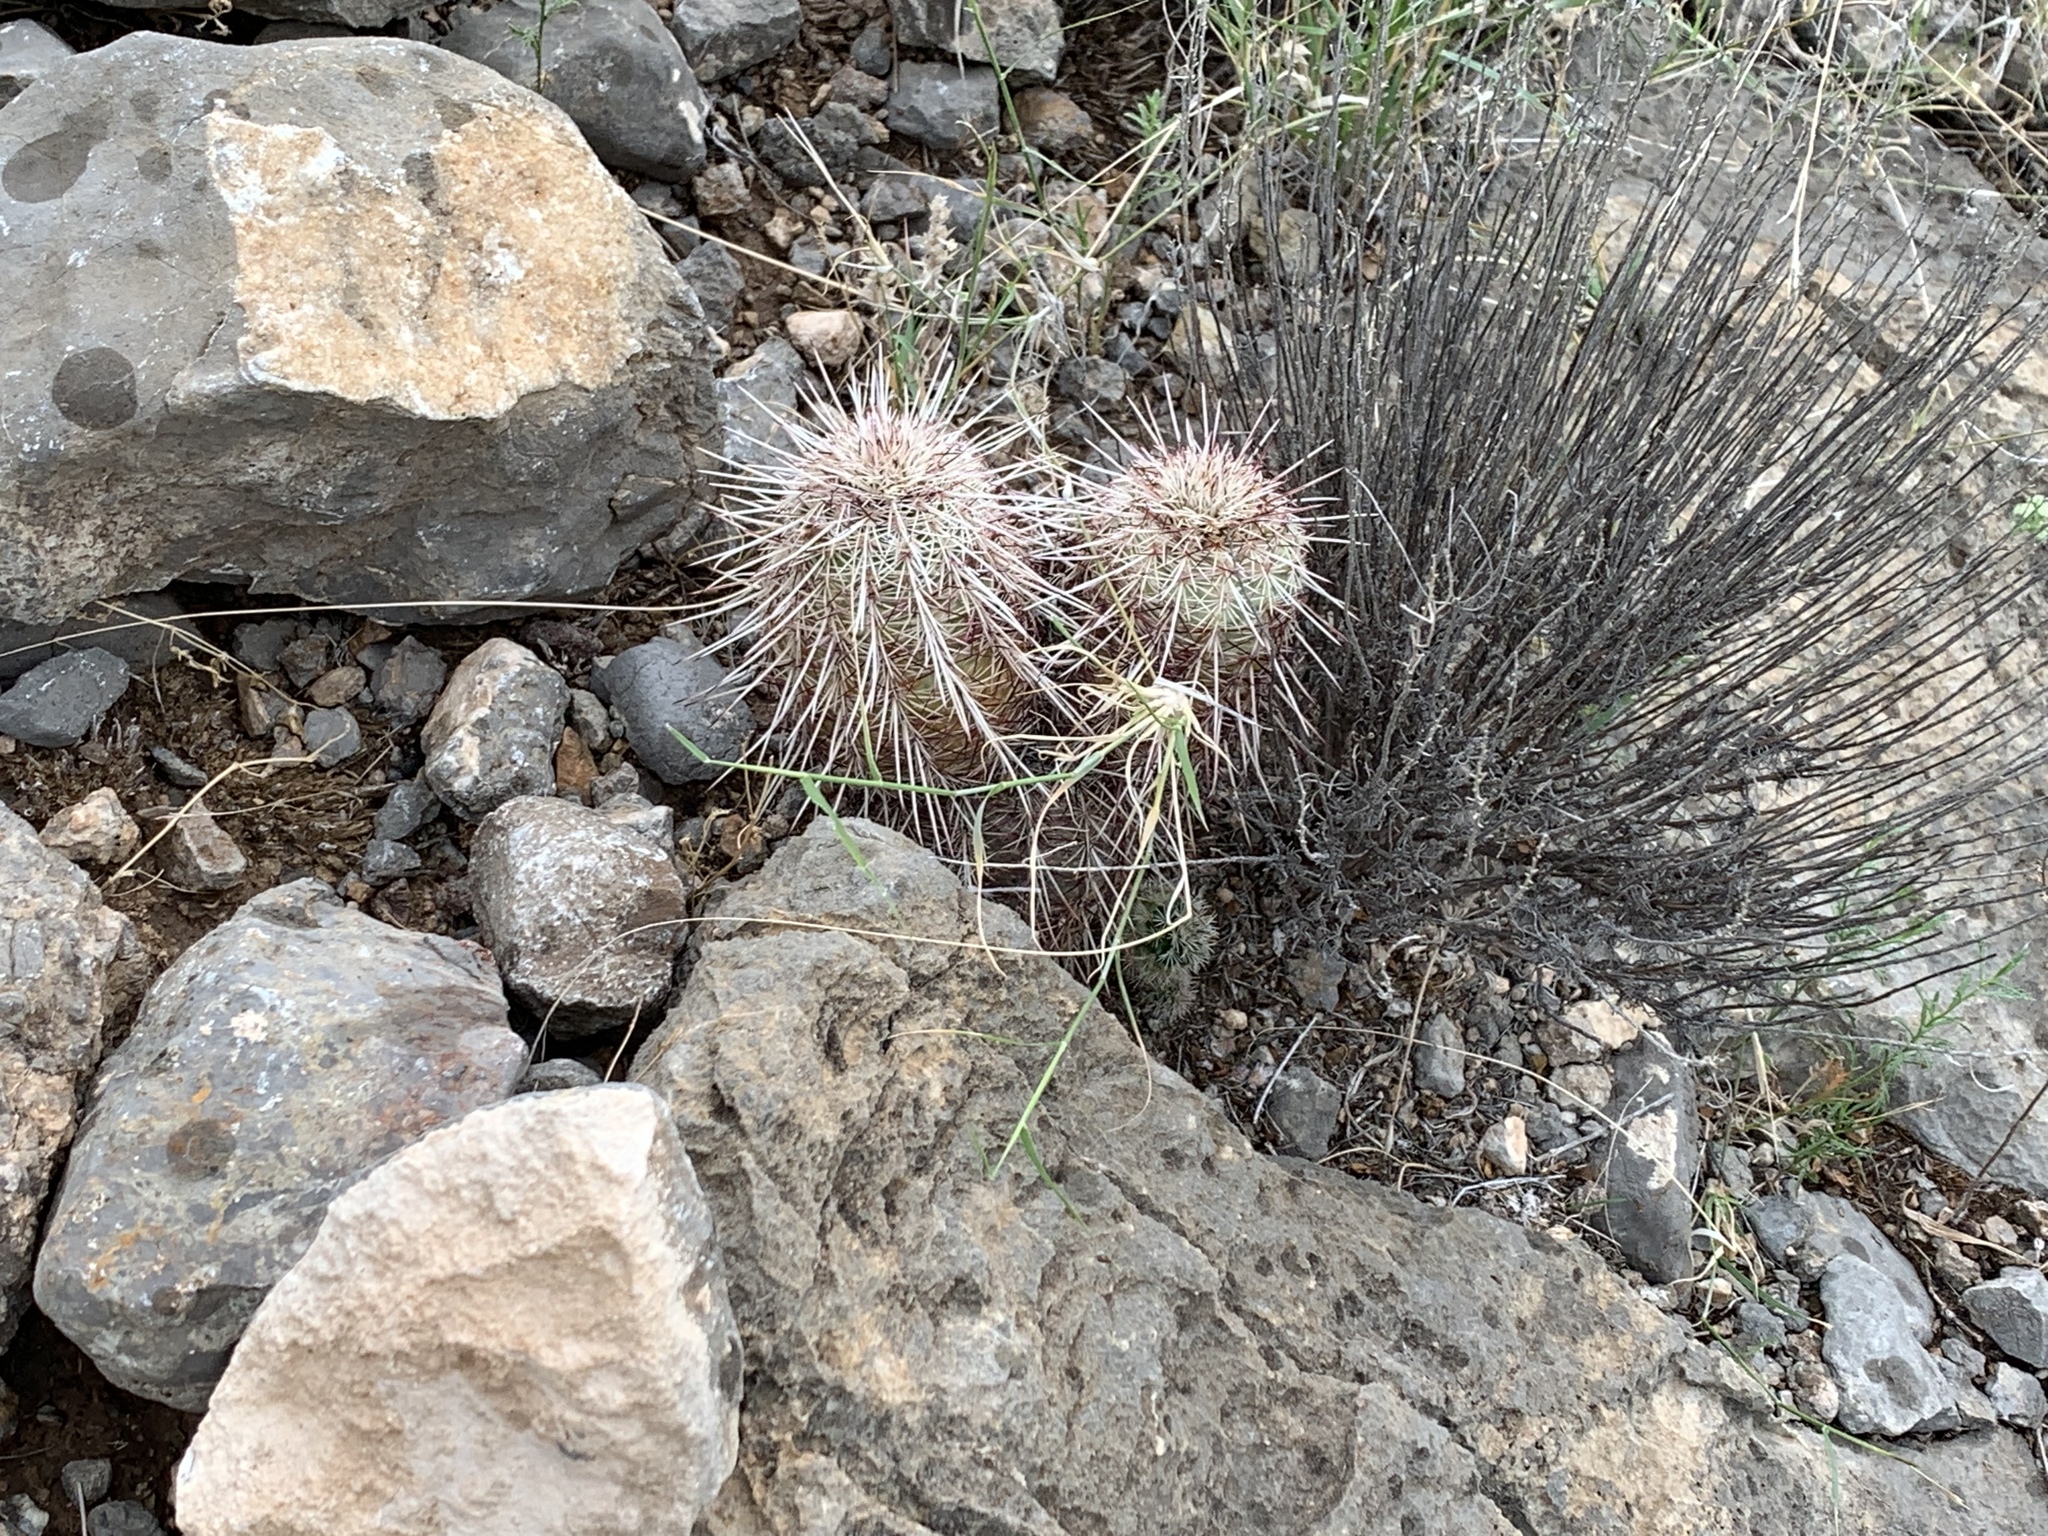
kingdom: Plantae
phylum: Tracheophyta
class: Magnoliopsida
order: Caryophyllales
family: Cactaceae
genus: Echinocereus
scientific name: Echinocereus viridiflorus
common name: Nylon hedgehog cactus
